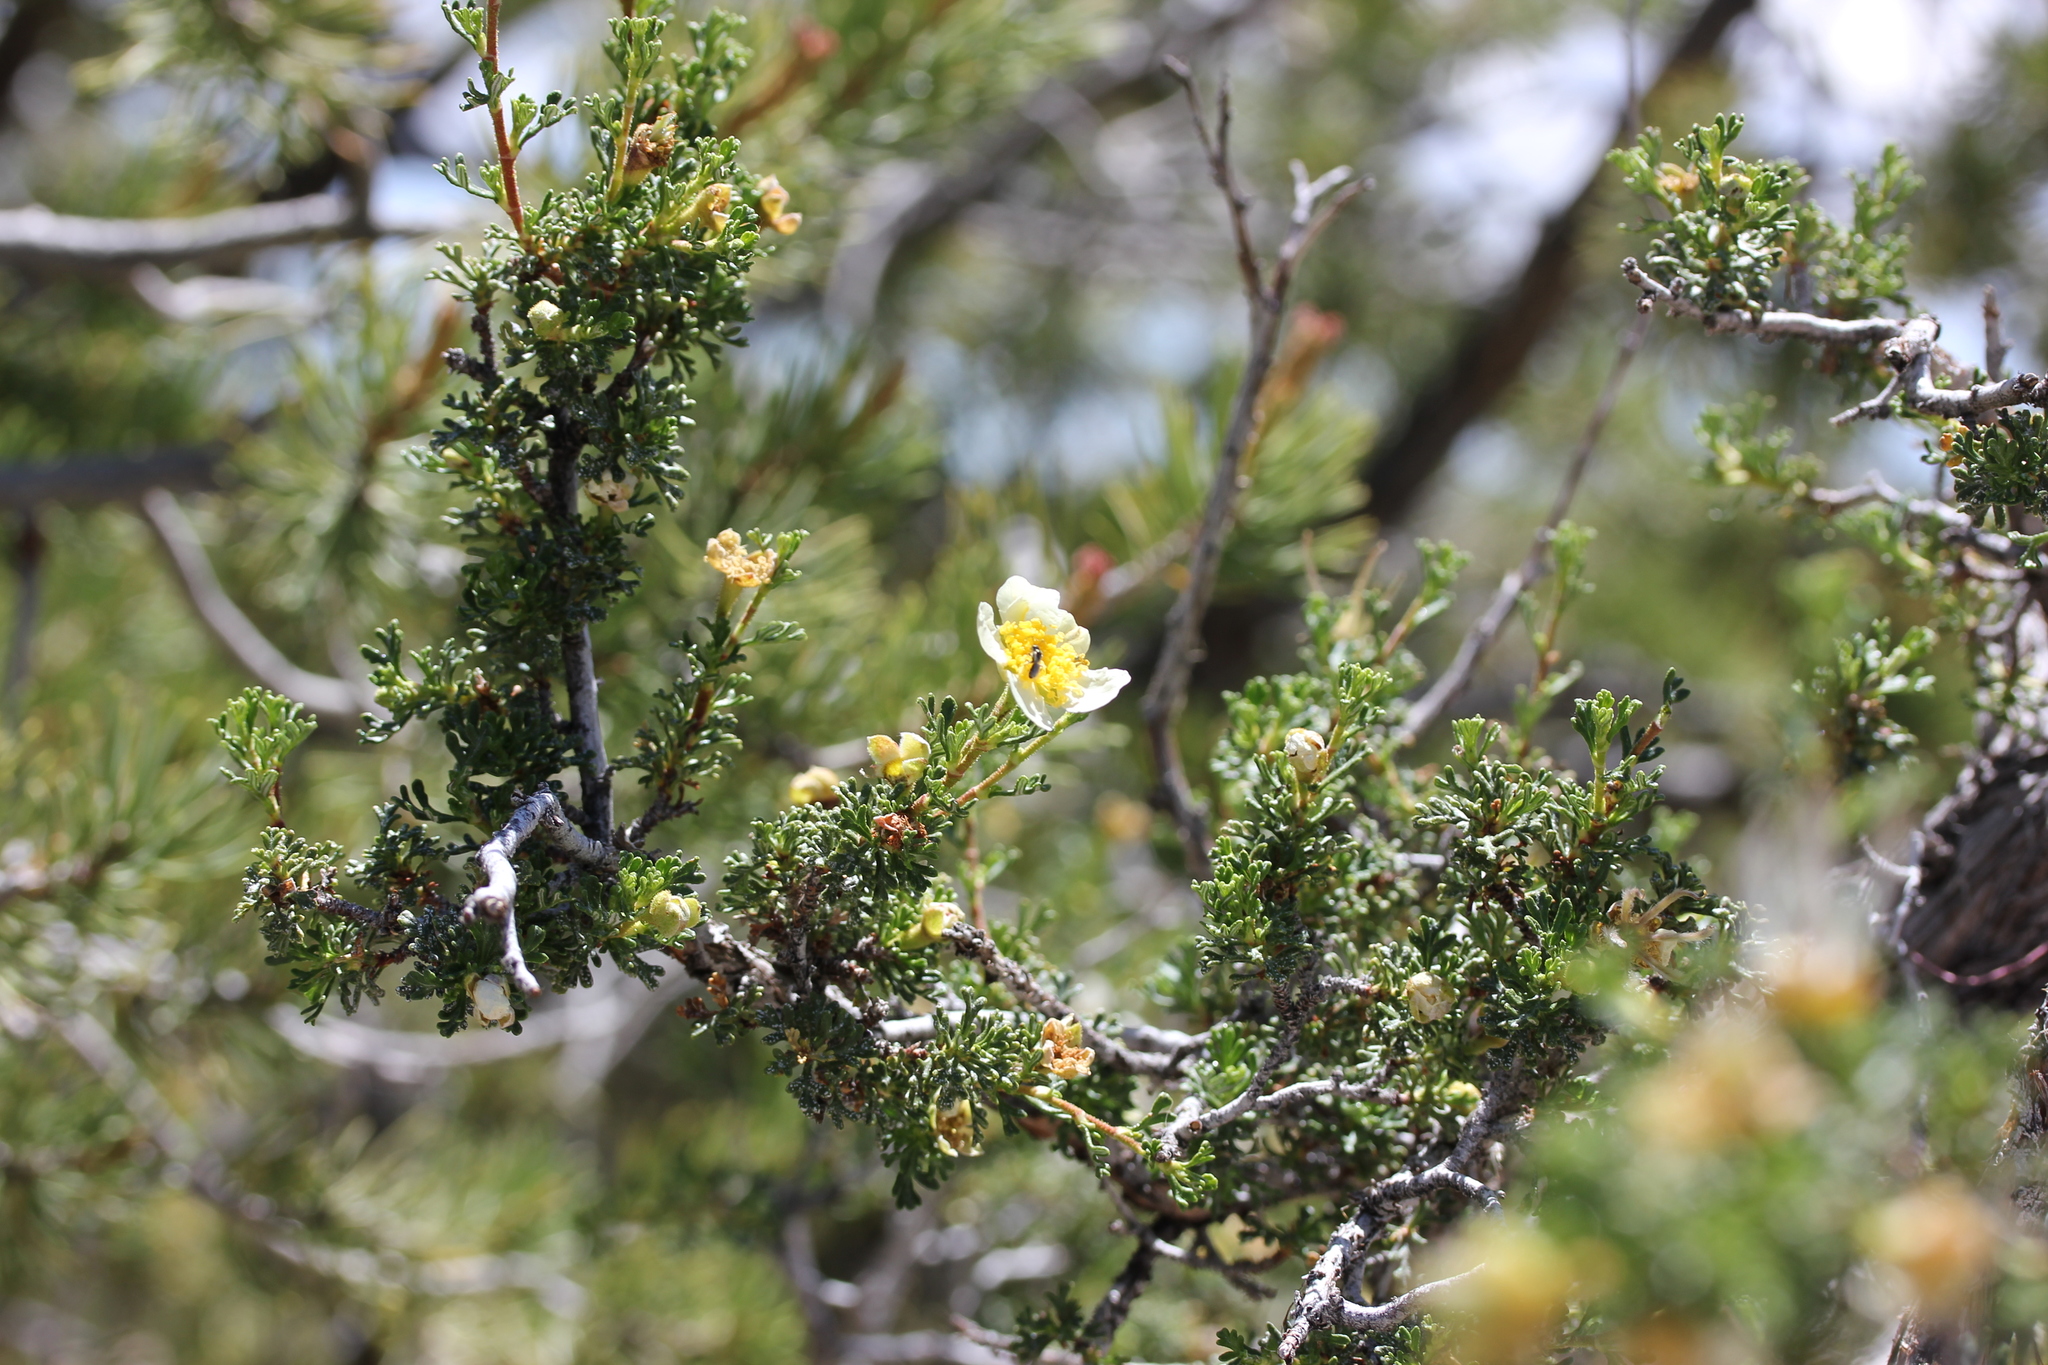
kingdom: Plantae
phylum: Tracheophyta
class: Magnoliopsida
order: Rosales
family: Rosaceae
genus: Purshia
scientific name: Purshia stansburiana
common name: Stansbury's cliffrose
